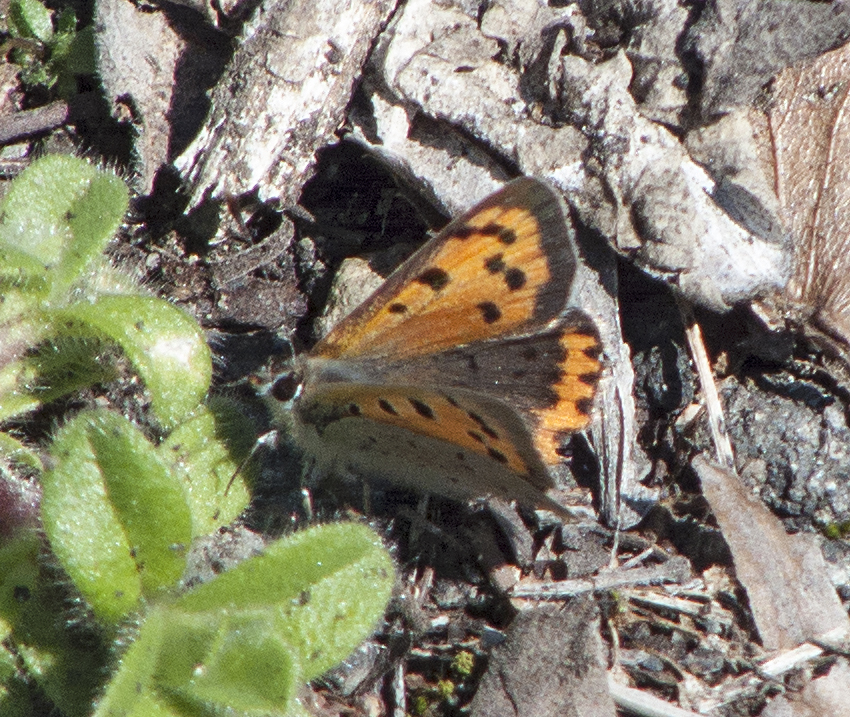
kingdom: Animalia
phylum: Arthropoda
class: Insecta
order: Lepidoptera
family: Lycaenidae
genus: Lycaena
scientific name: Lycaena phlaeas
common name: Small copper
